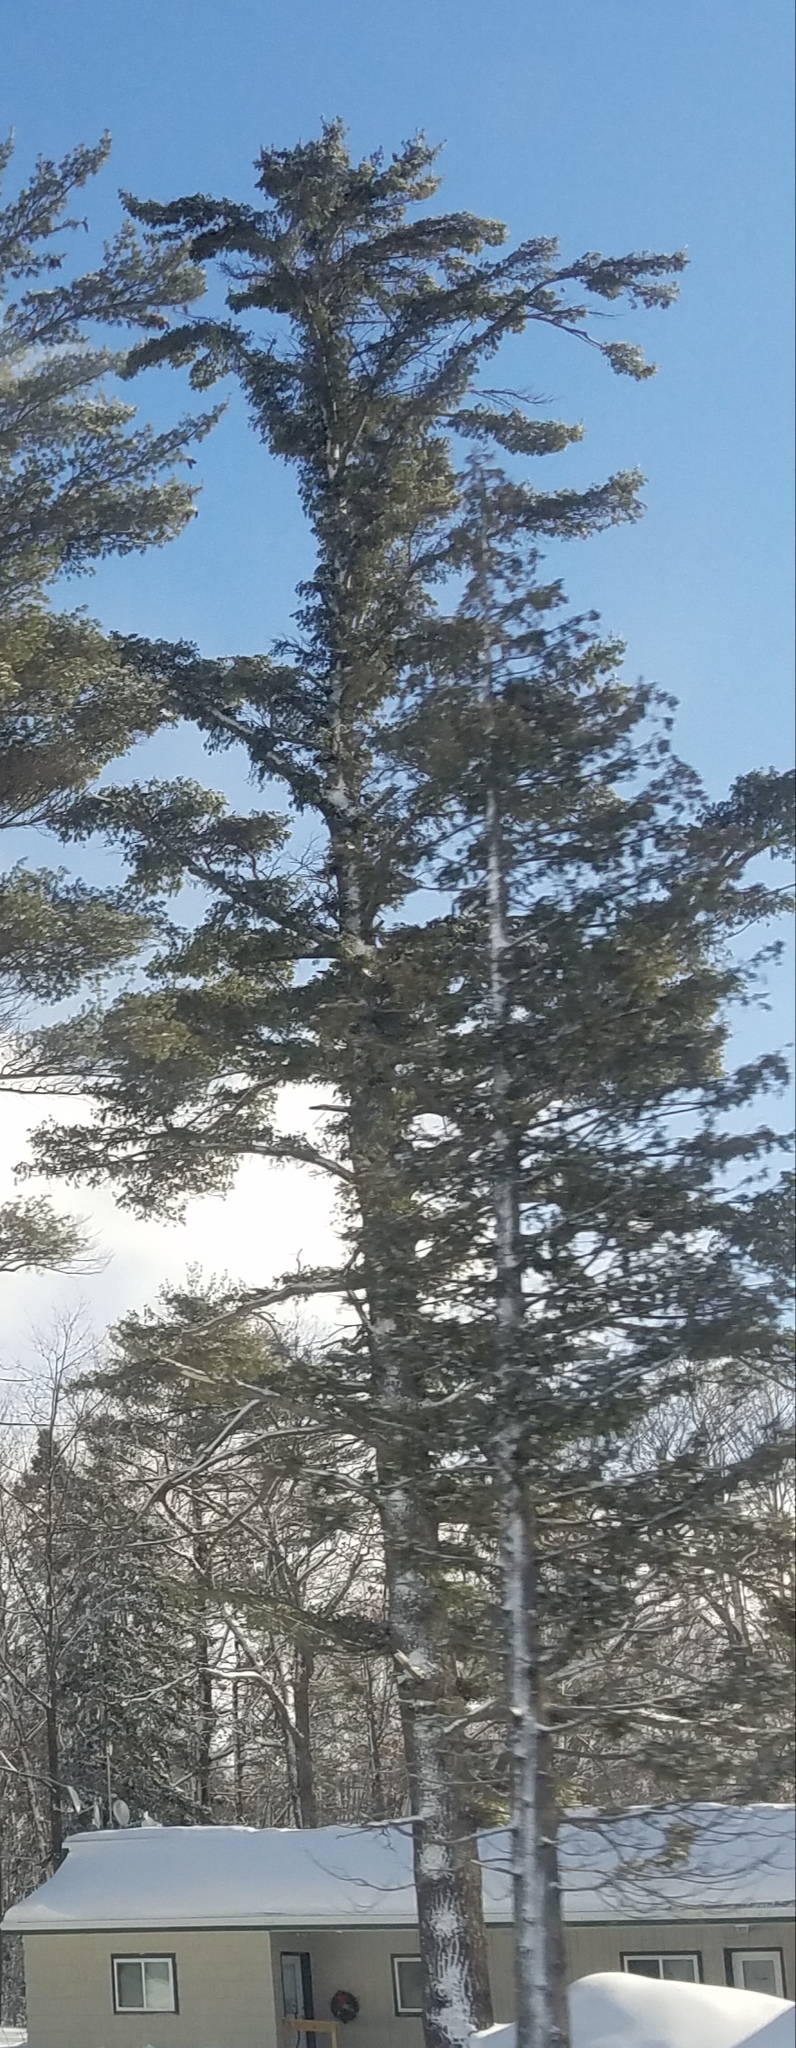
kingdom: Plantae
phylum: Tracheophyta
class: Pinopsida
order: Pinales
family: Pinaceae
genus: Pinus
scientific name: Pinus strobus
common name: Weymouth pine
